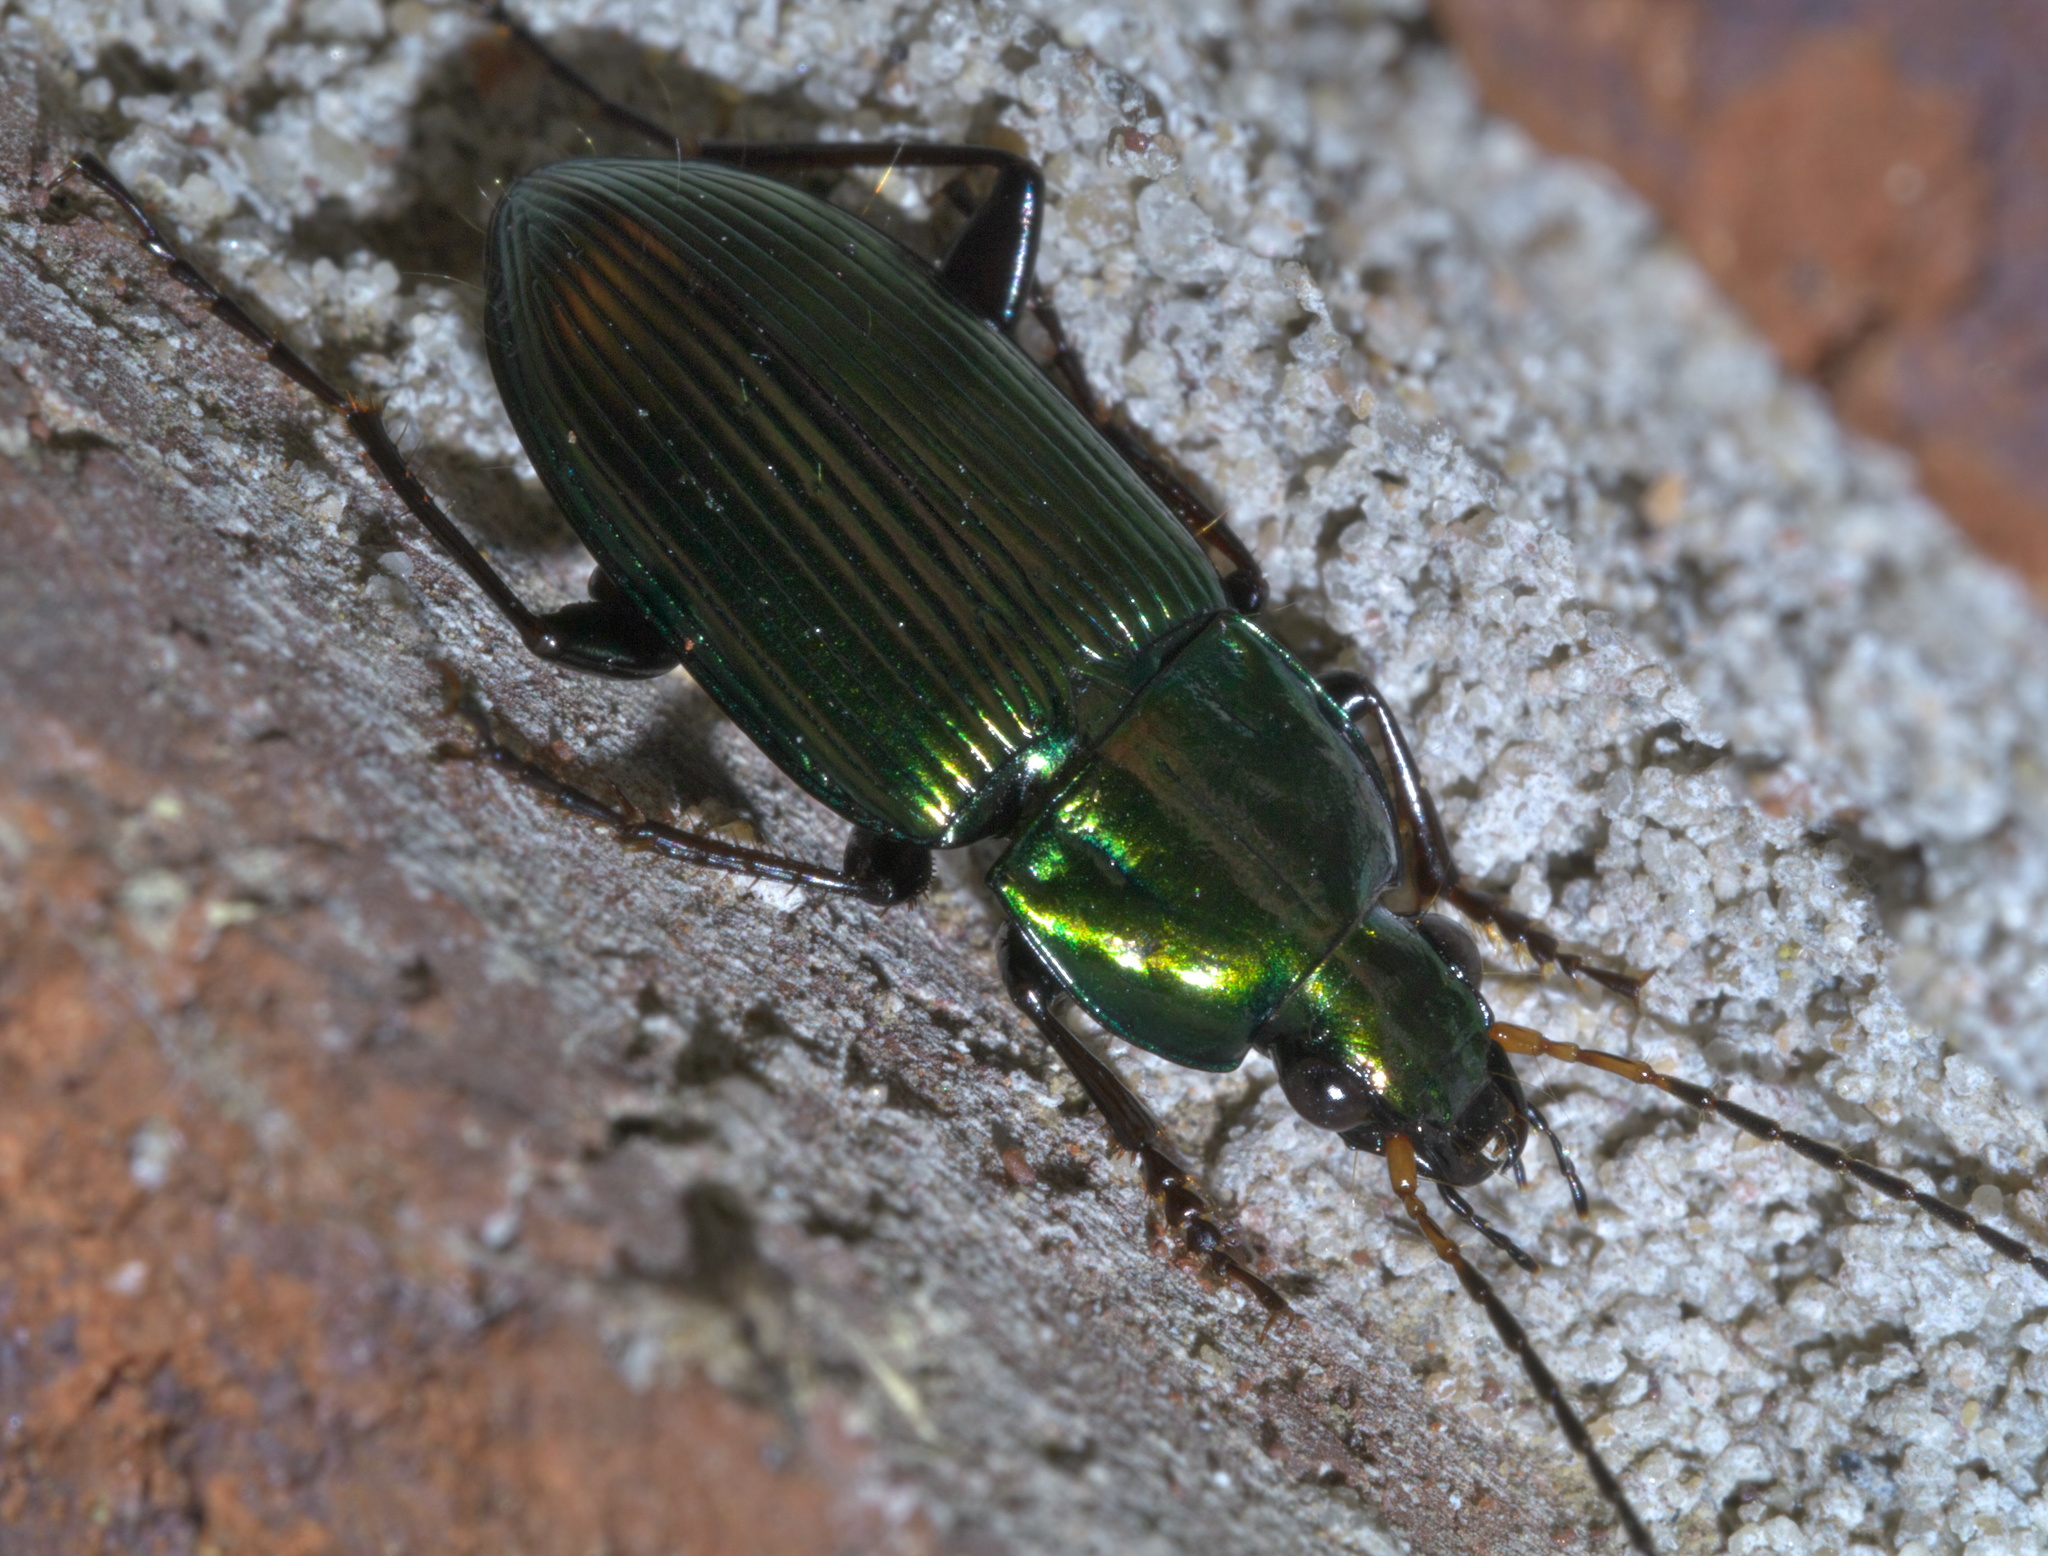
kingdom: Animalia
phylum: Arthropoda
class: Insecta
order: Coleoptera
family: Carabidae
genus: Poecilus
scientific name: Poecilus chalcites
